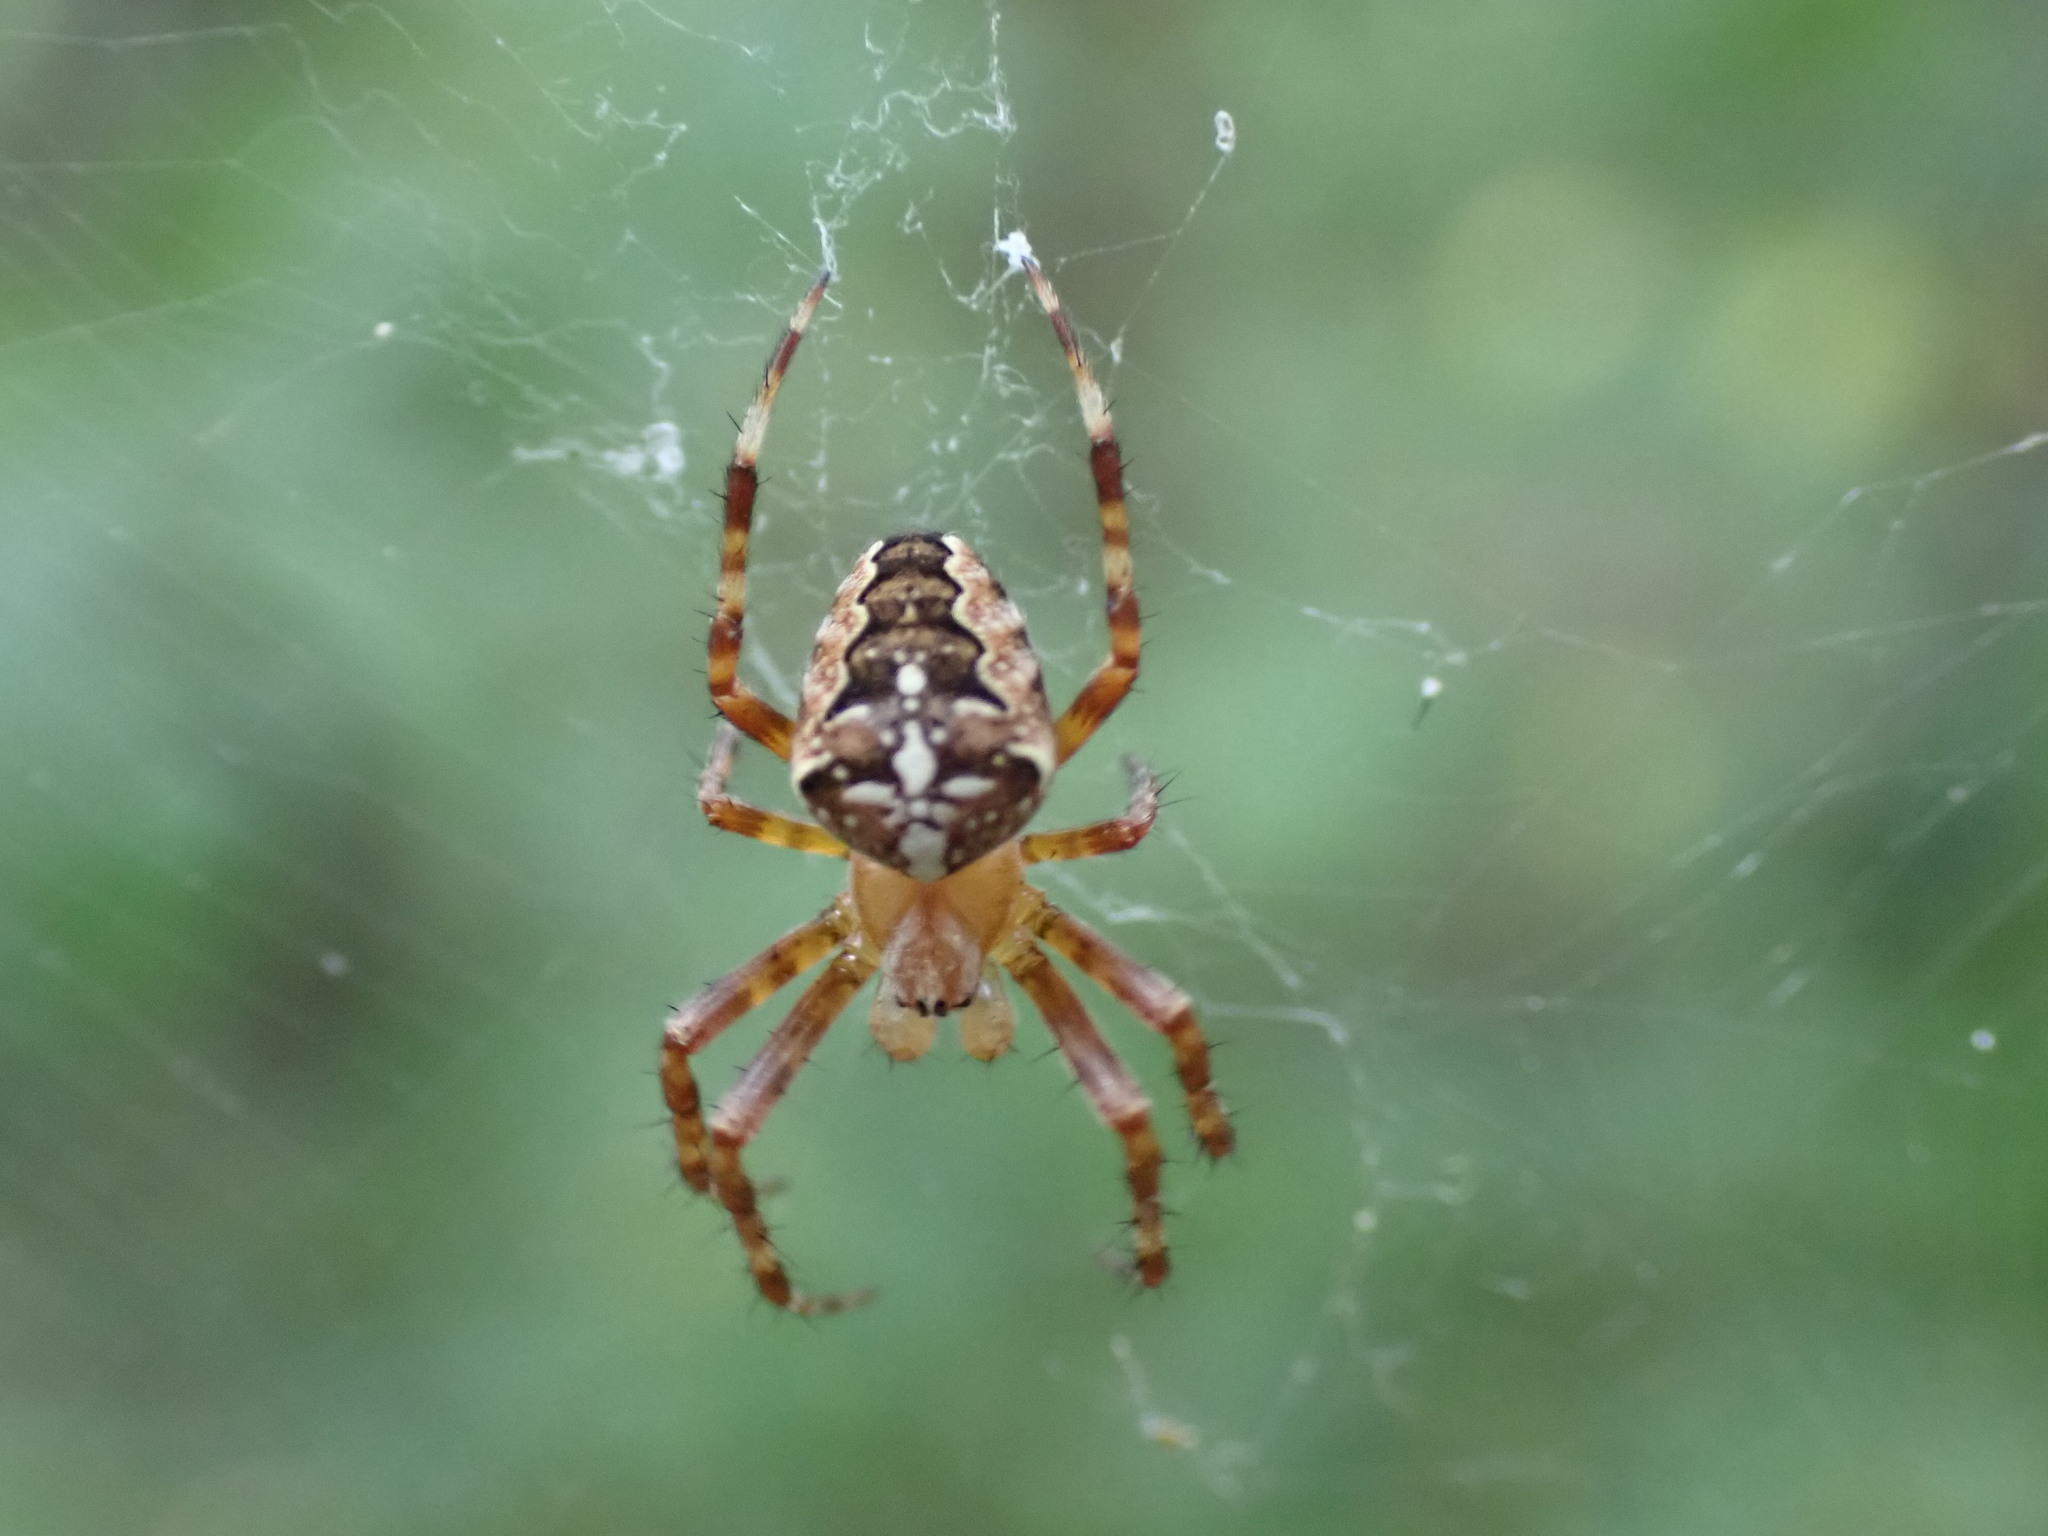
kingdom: Animalia
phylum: Arthropoda
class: Arachnida
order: Araneae
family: Araneidae
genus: Araneus
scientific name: Araneus diadematus
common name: Cross orbweaver
